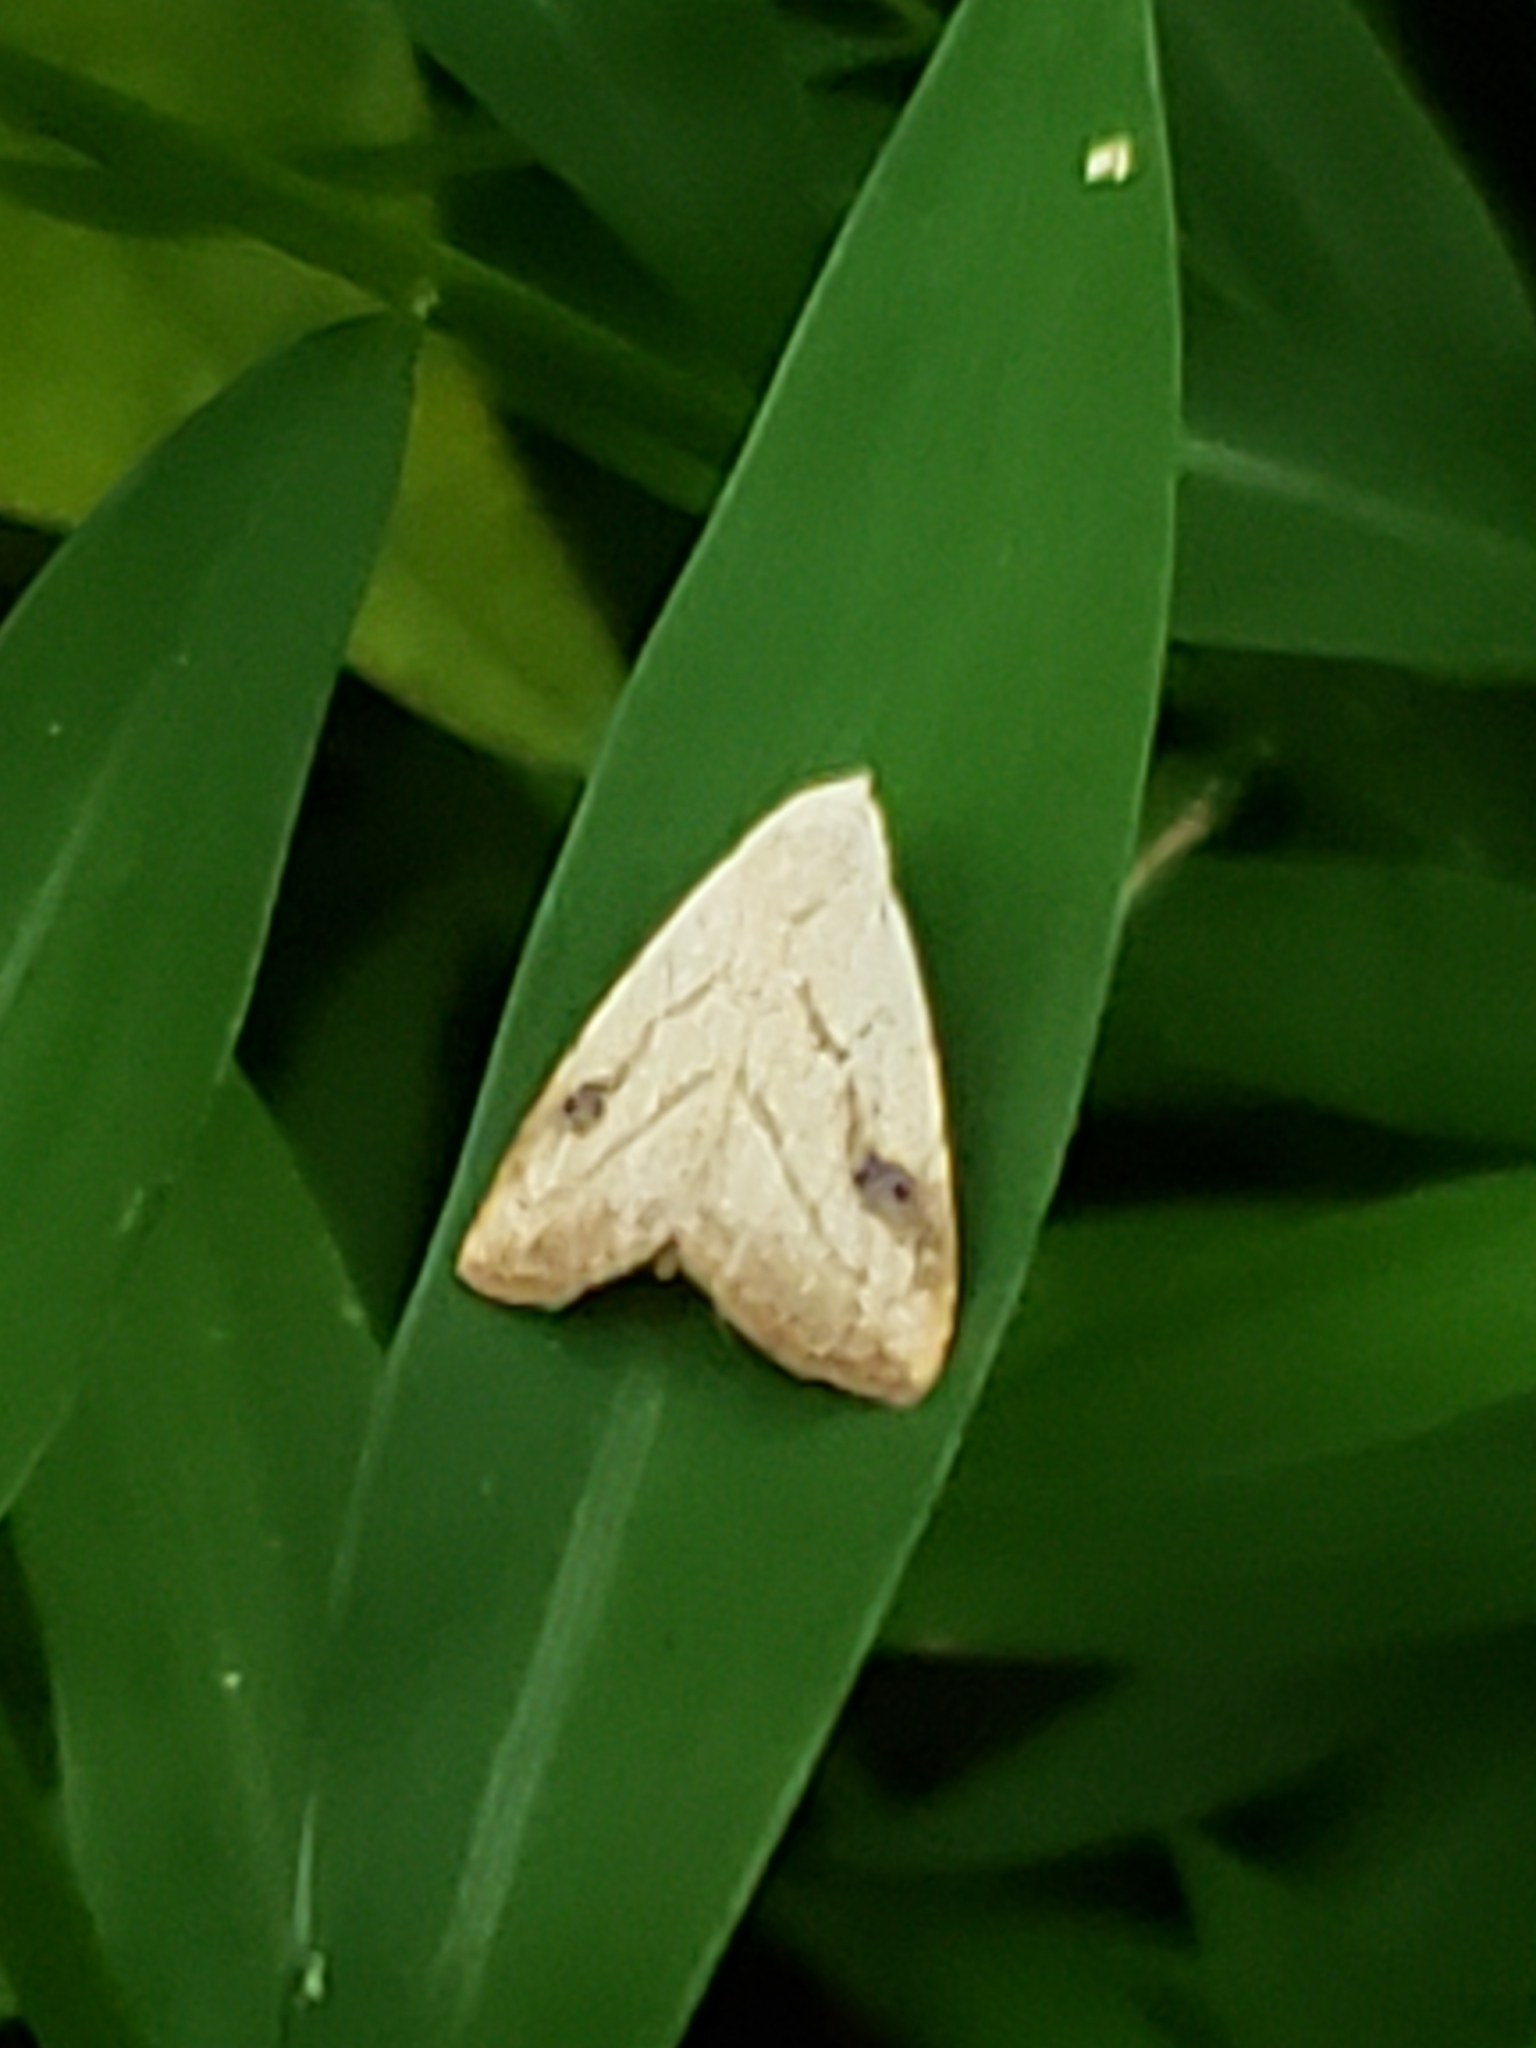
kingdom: Animalia
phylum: Arthropoda
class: Insecta
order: Lepidoptera
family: Erebidae
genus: Rivula
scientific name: Rivula propinqualis
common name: Spotted grass moth
